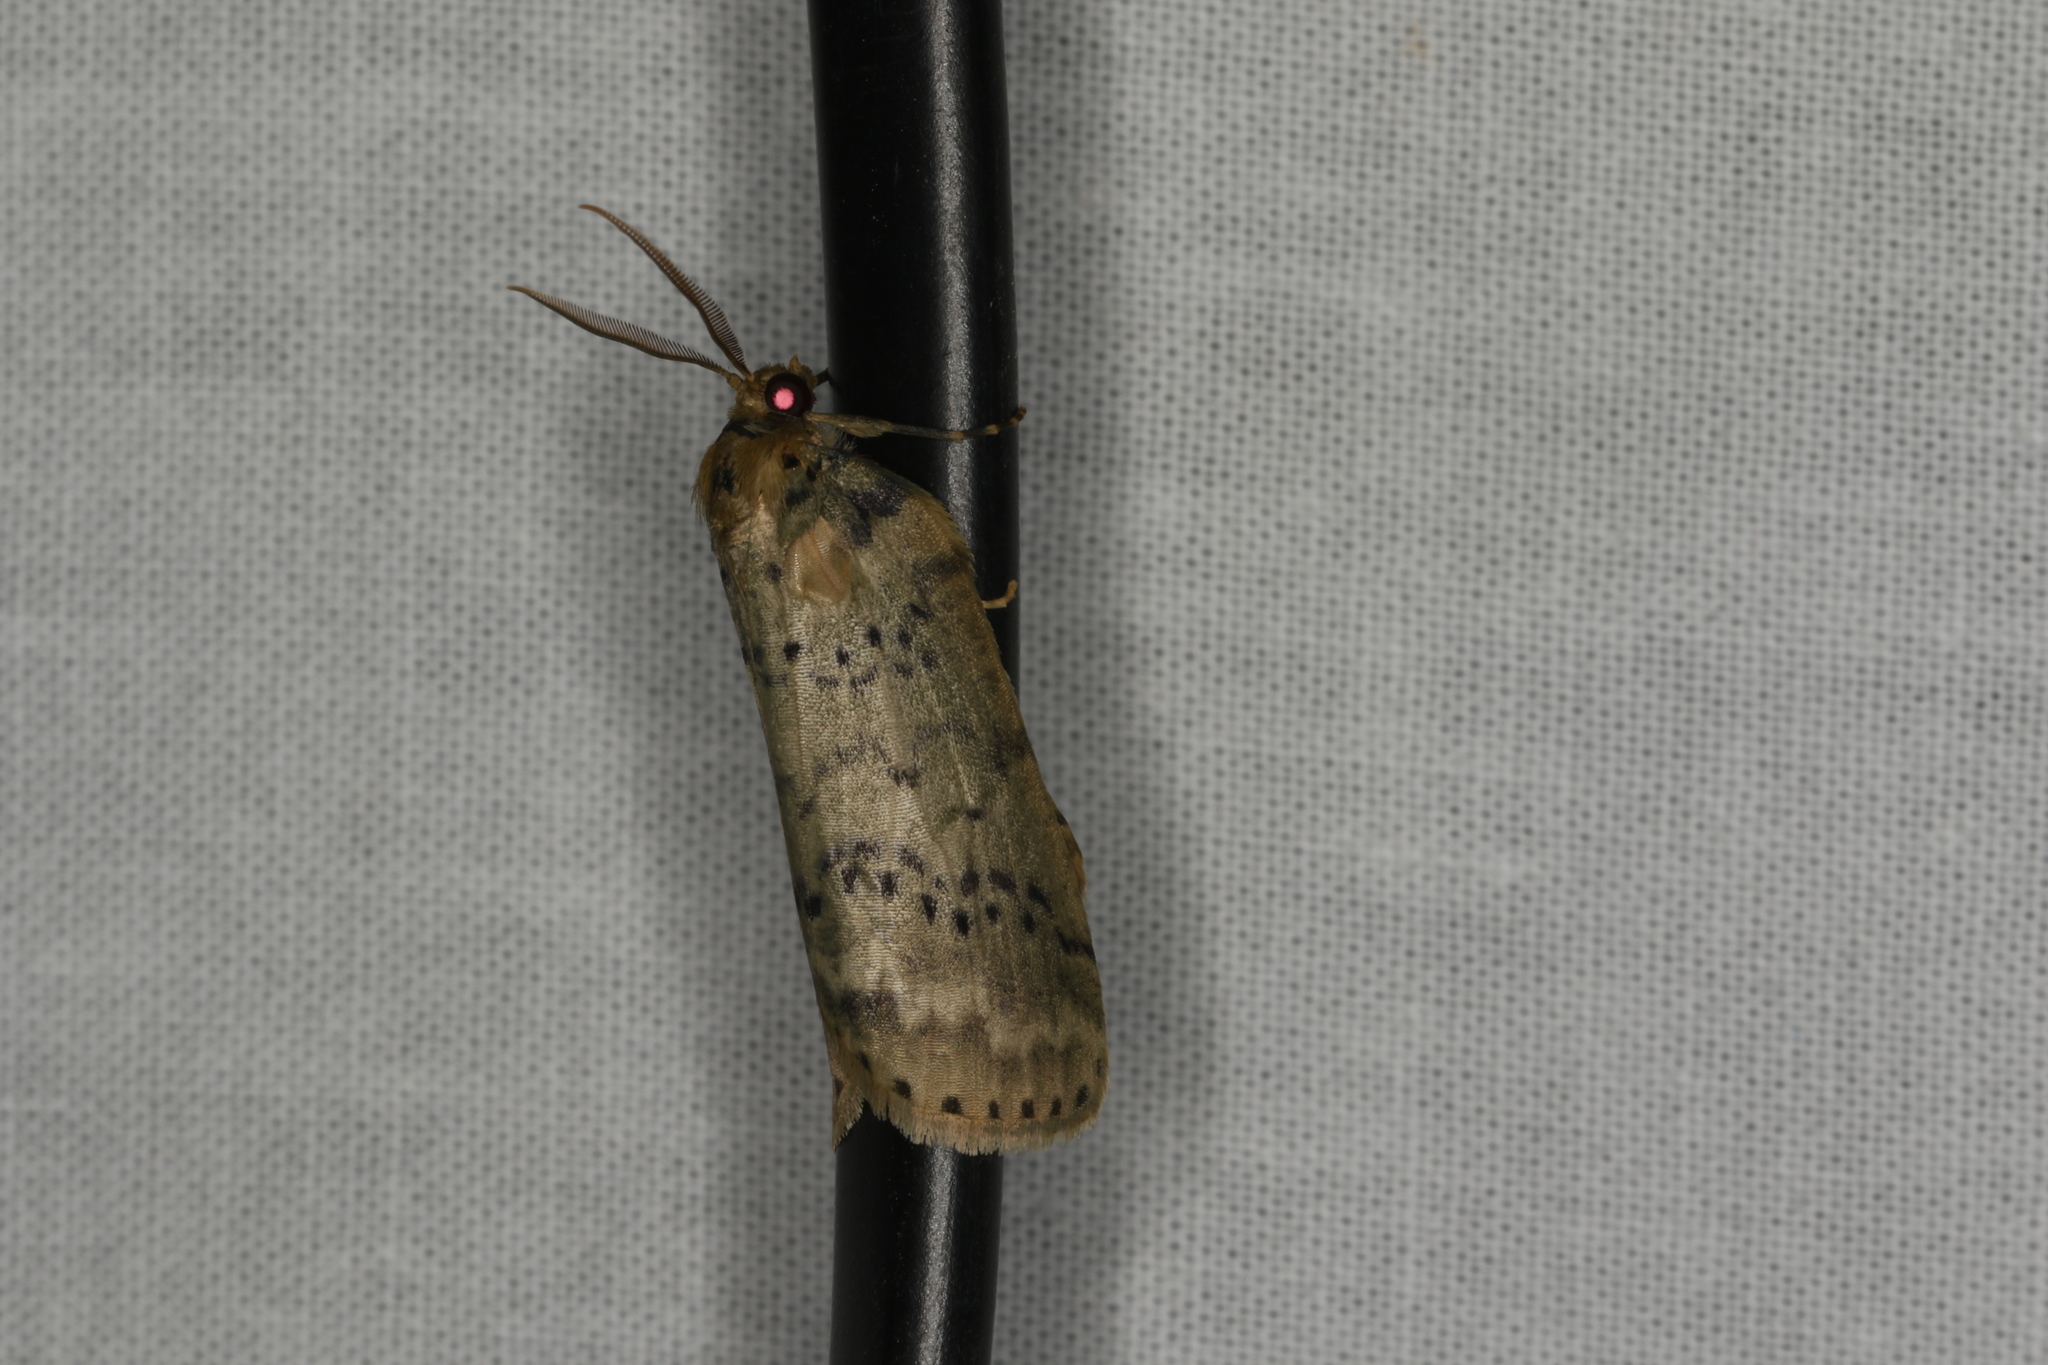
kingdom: Animalia
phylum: Arthropoda
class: Insecta
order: Lepidoptera
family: Geometridae
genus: Lyelliana
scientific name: Lyelliana dryophila
